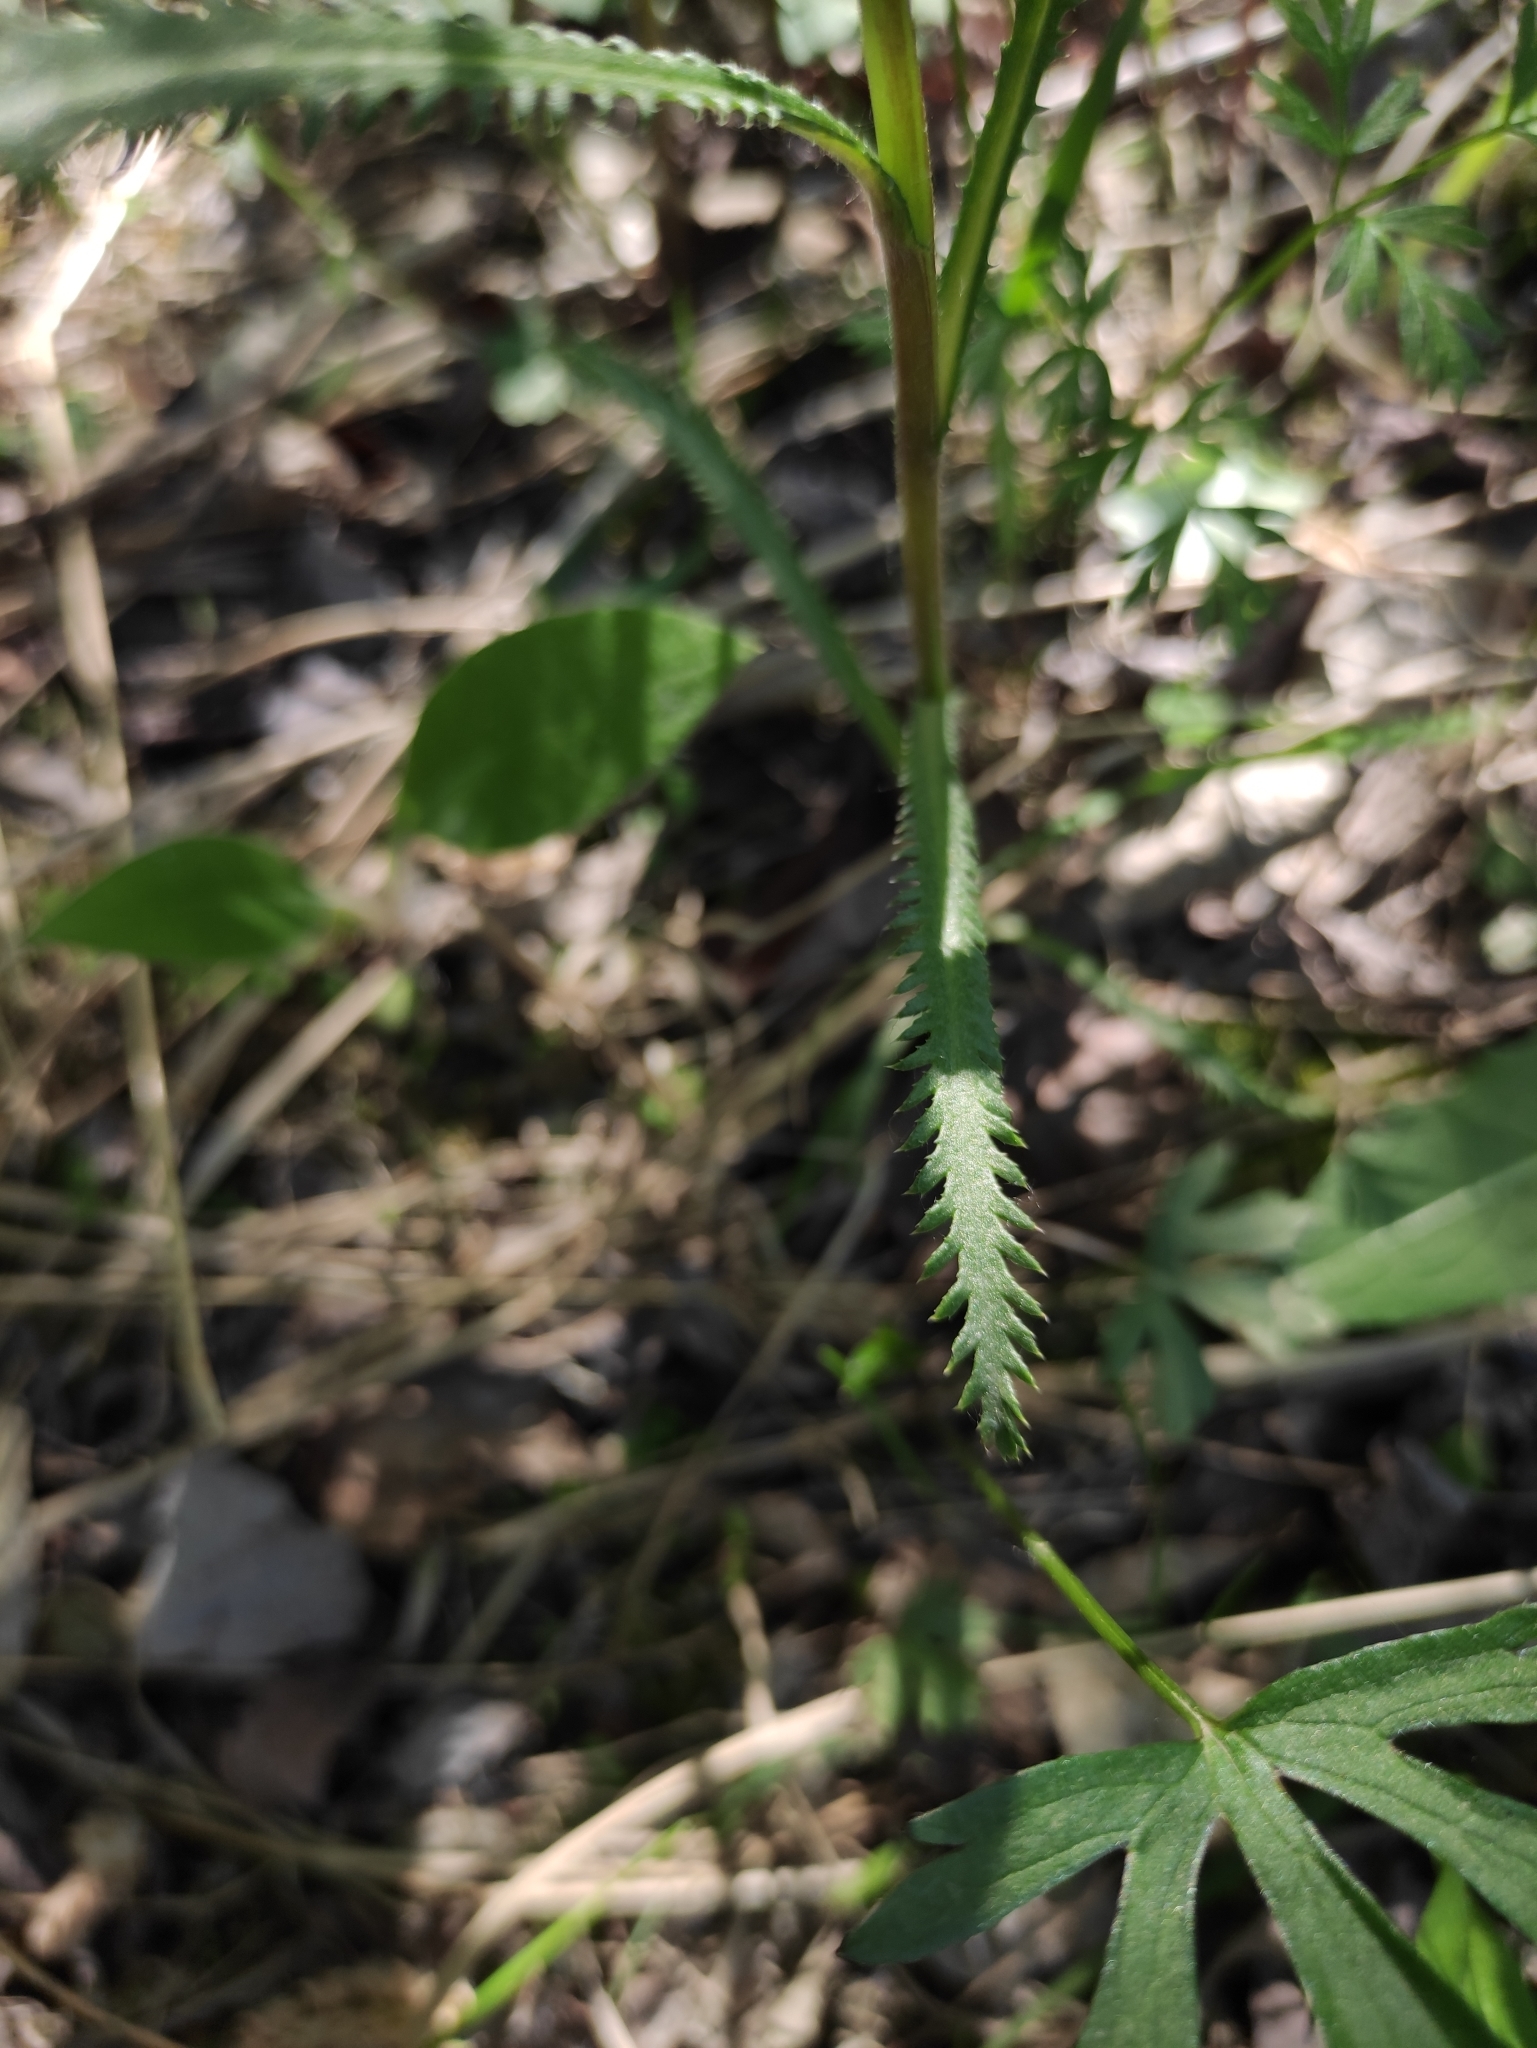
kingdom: Plantae
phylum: Tracheophyta
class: Magnoliopsida
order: Asterales
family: Asteraceae
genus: Achillea
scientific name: Achillea alpina
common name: Siberian yarrow
